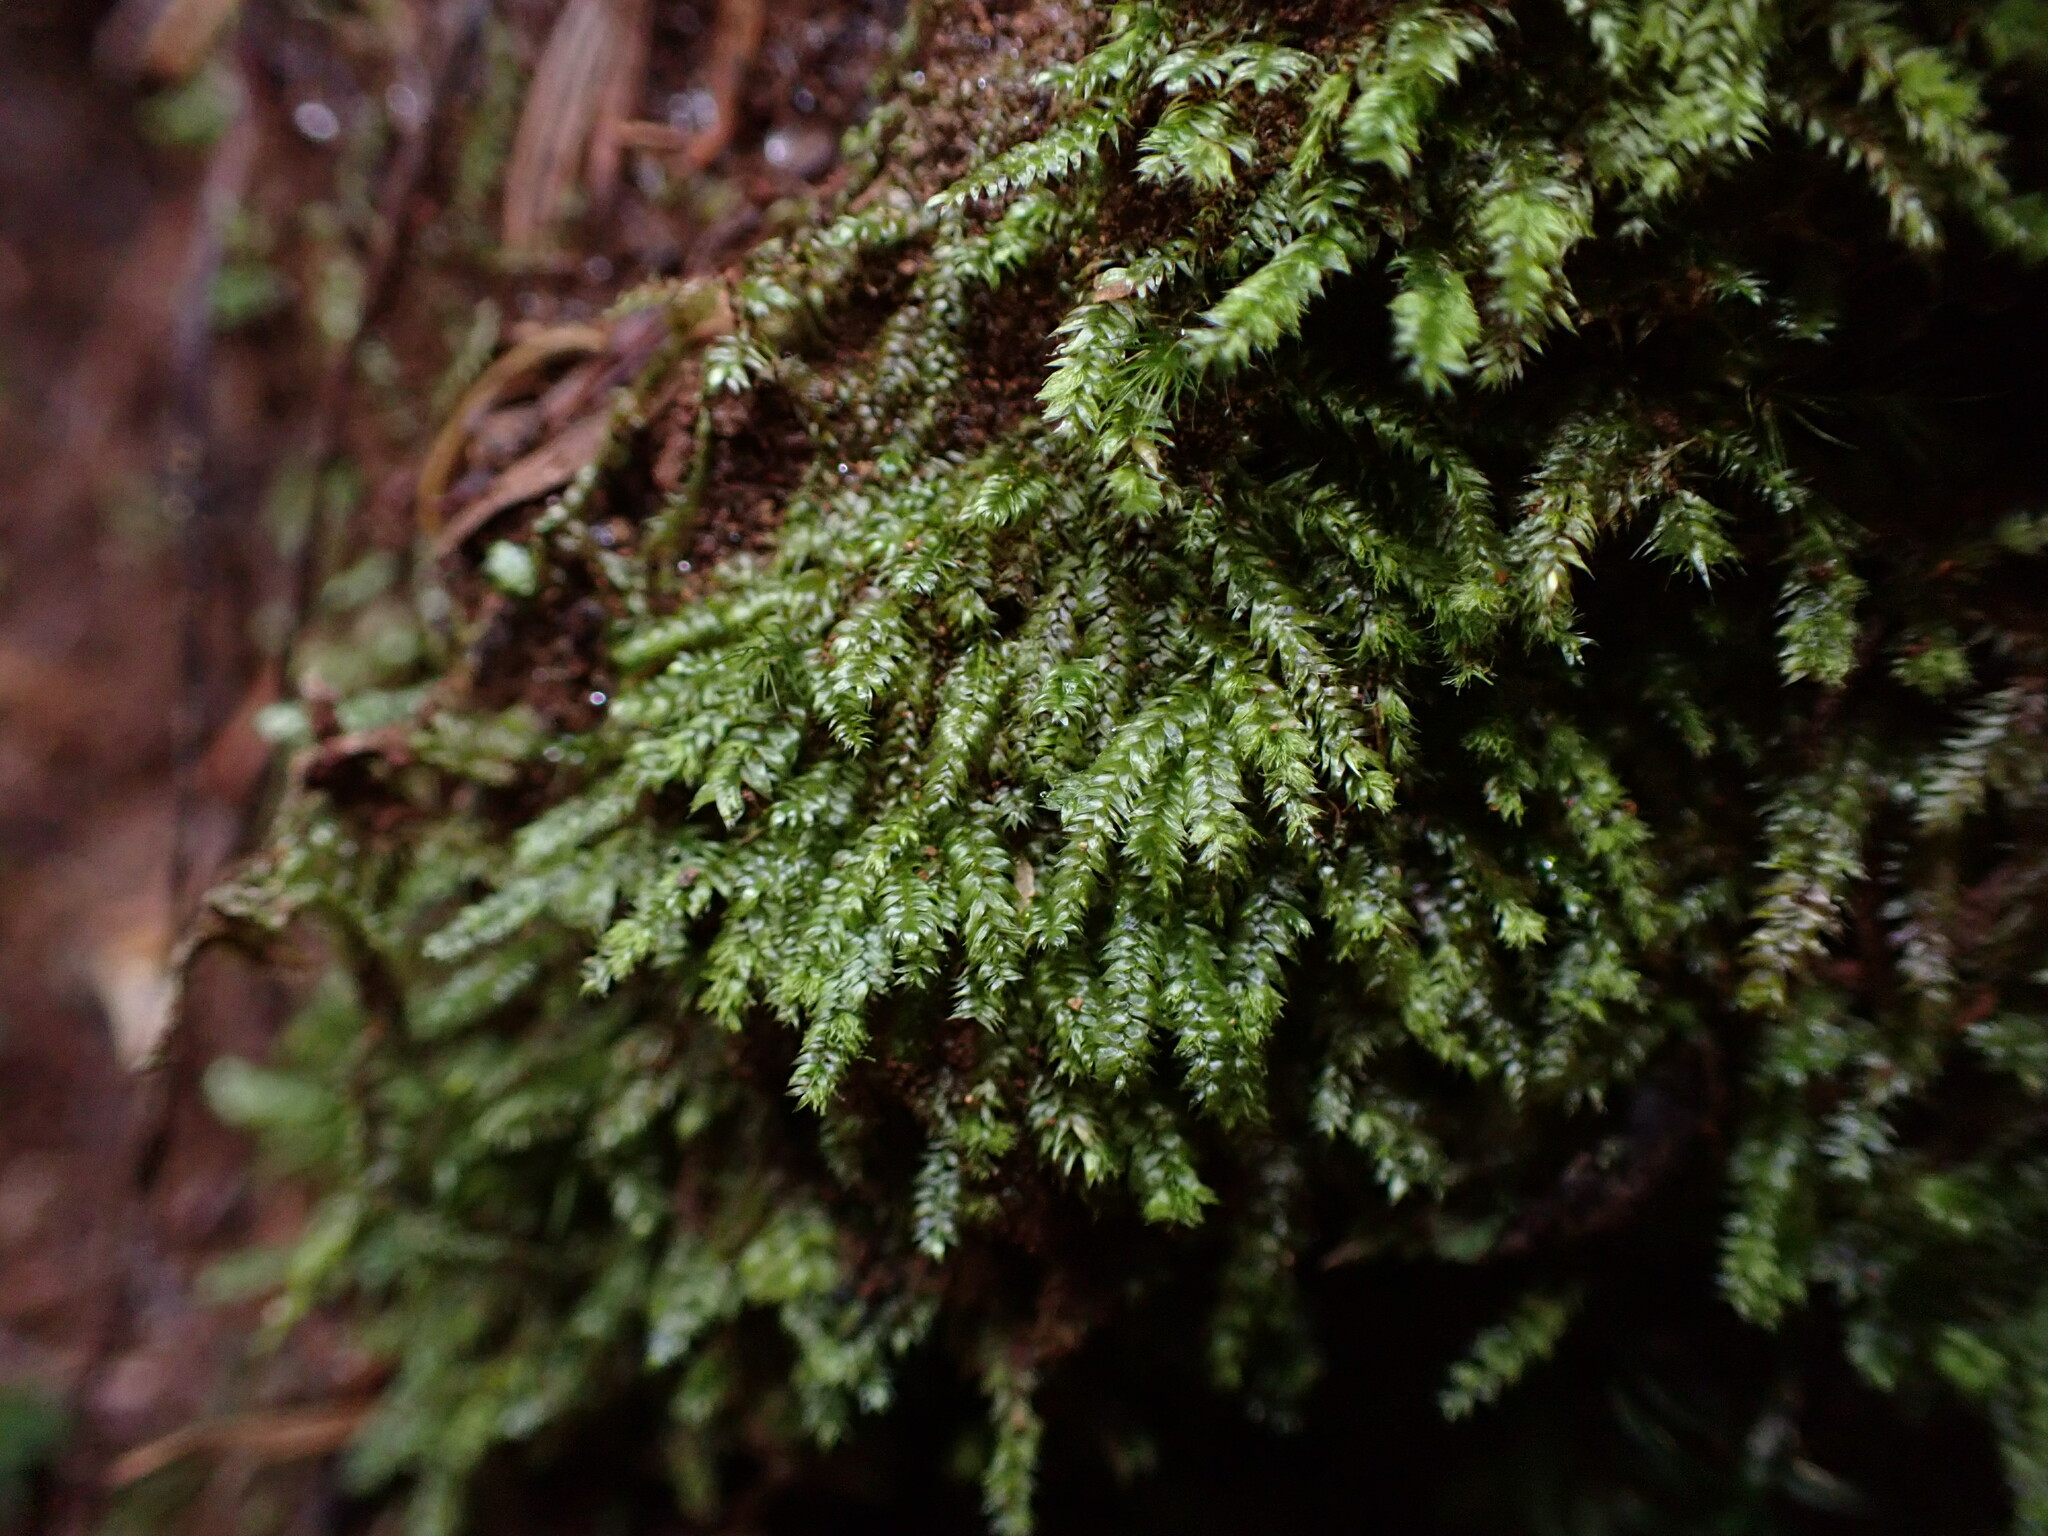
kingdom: Plantae
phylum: Bryophyta
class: Bryopsida
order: Hypnales
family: Plagiotheciaceae
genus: Pseudotaxiphyllum
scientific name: Pseudotaxiphyllum elegans
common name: Elegant silk moss
